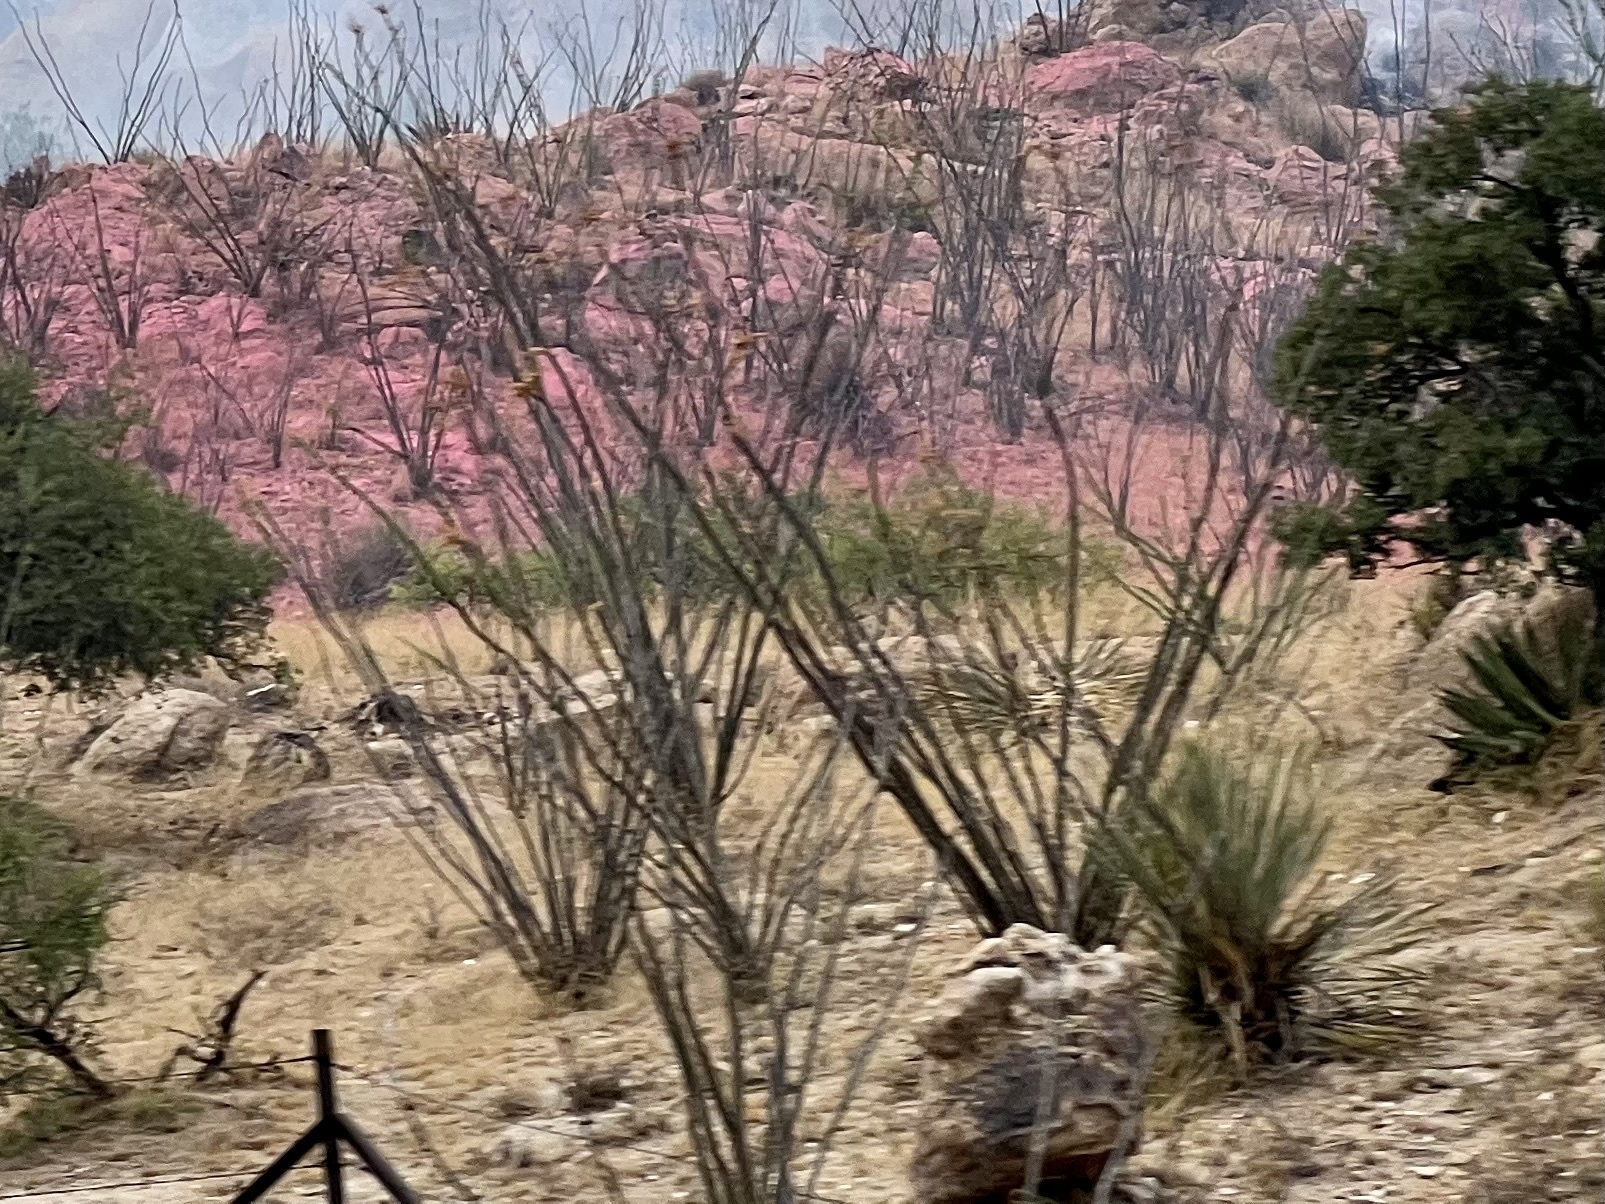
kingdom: Plantae
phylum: Tracheophyta
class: Magnoliopsida
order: Ericales
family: Fouquieriaceae
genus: Fouquieria
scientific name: Fouquieria splendens
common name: Vine-cactus
